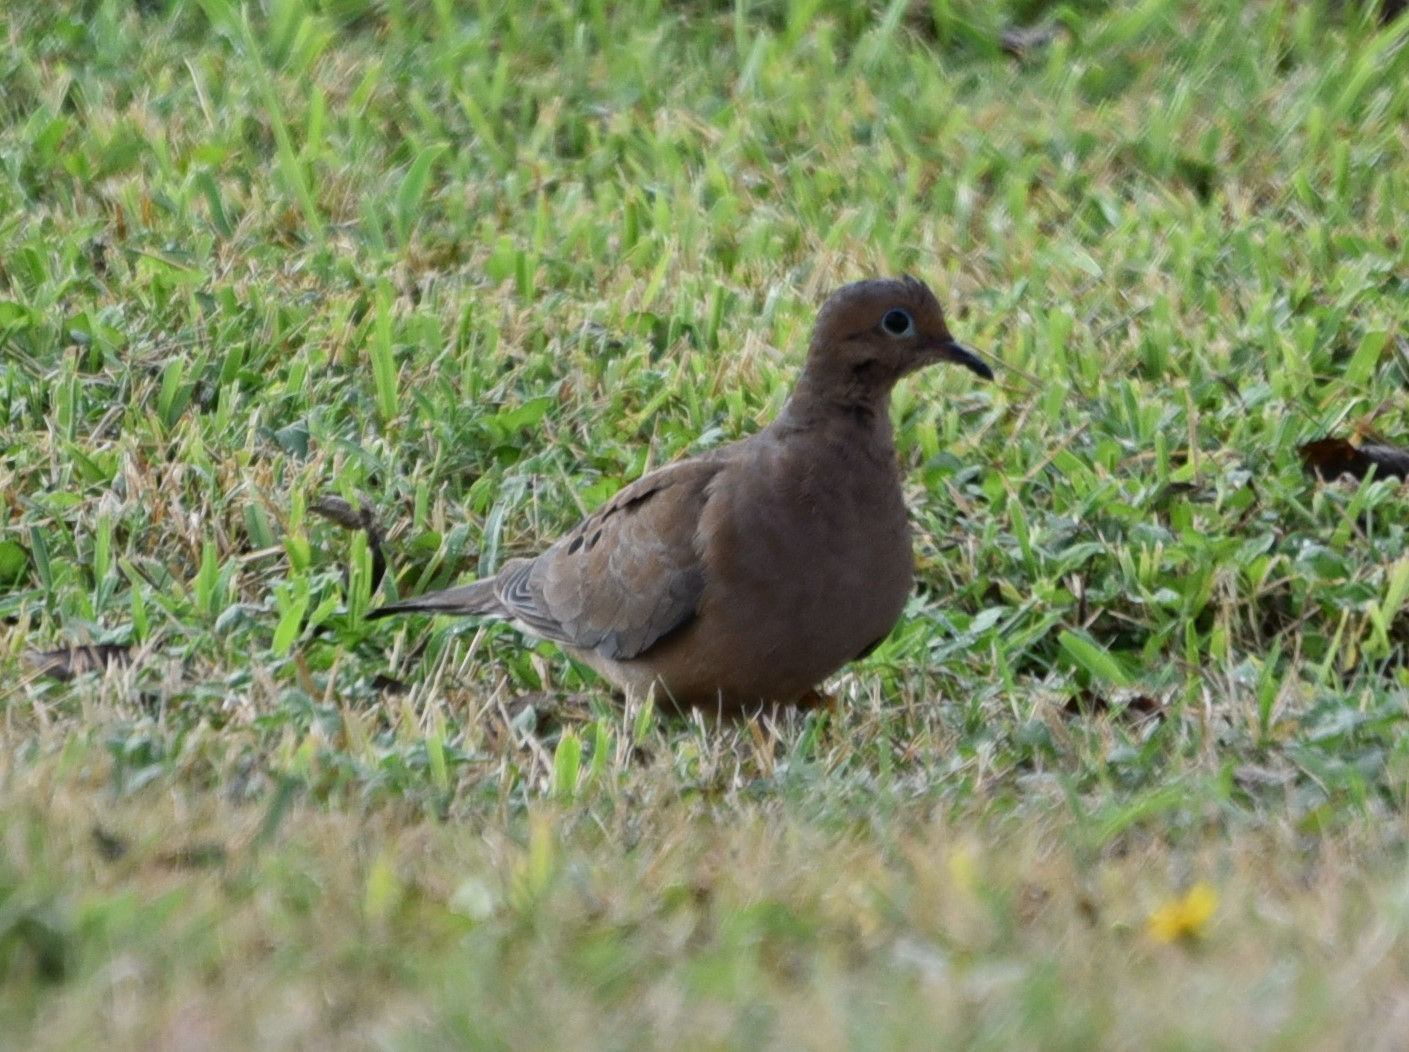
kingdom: Animalia
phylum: Chordata
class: Aves
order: Columbiformes
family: Columbidae
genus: Zenaida
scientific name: Zenaida macroura
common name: Mourning dove
